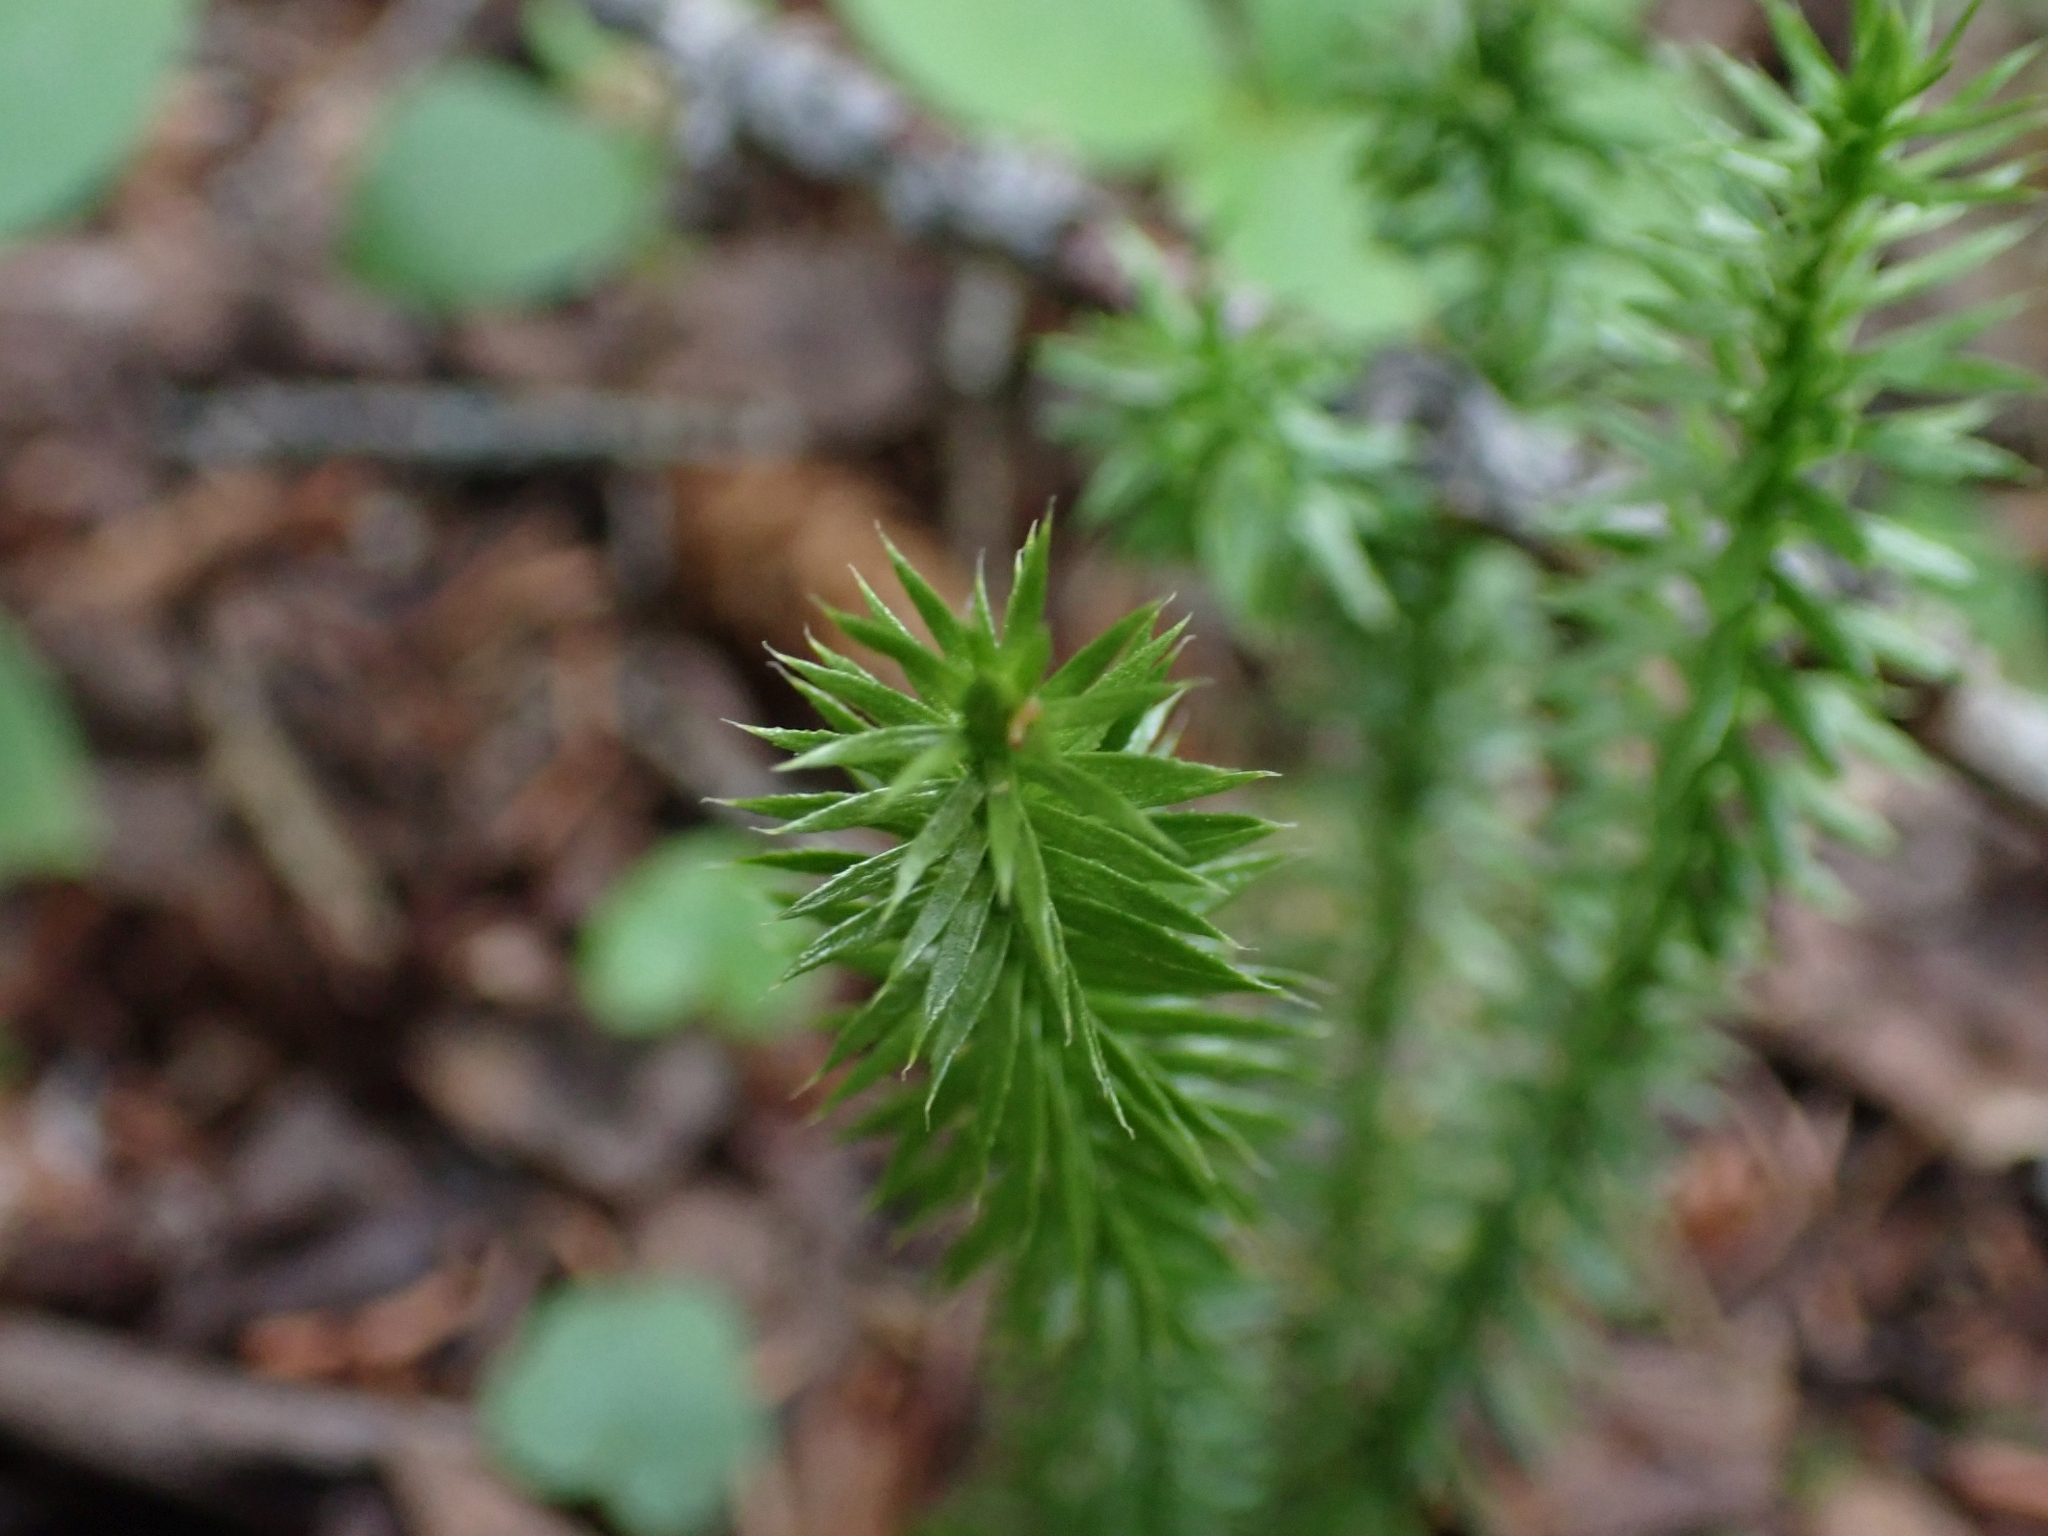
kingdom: Plantae
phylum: Tracheophyta
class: Lycopodiopsida
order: Lycopodiales
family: Lycopodiaceae
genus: Spinulum
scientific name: Spinulum annotinum
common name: Interrupted club-moss
